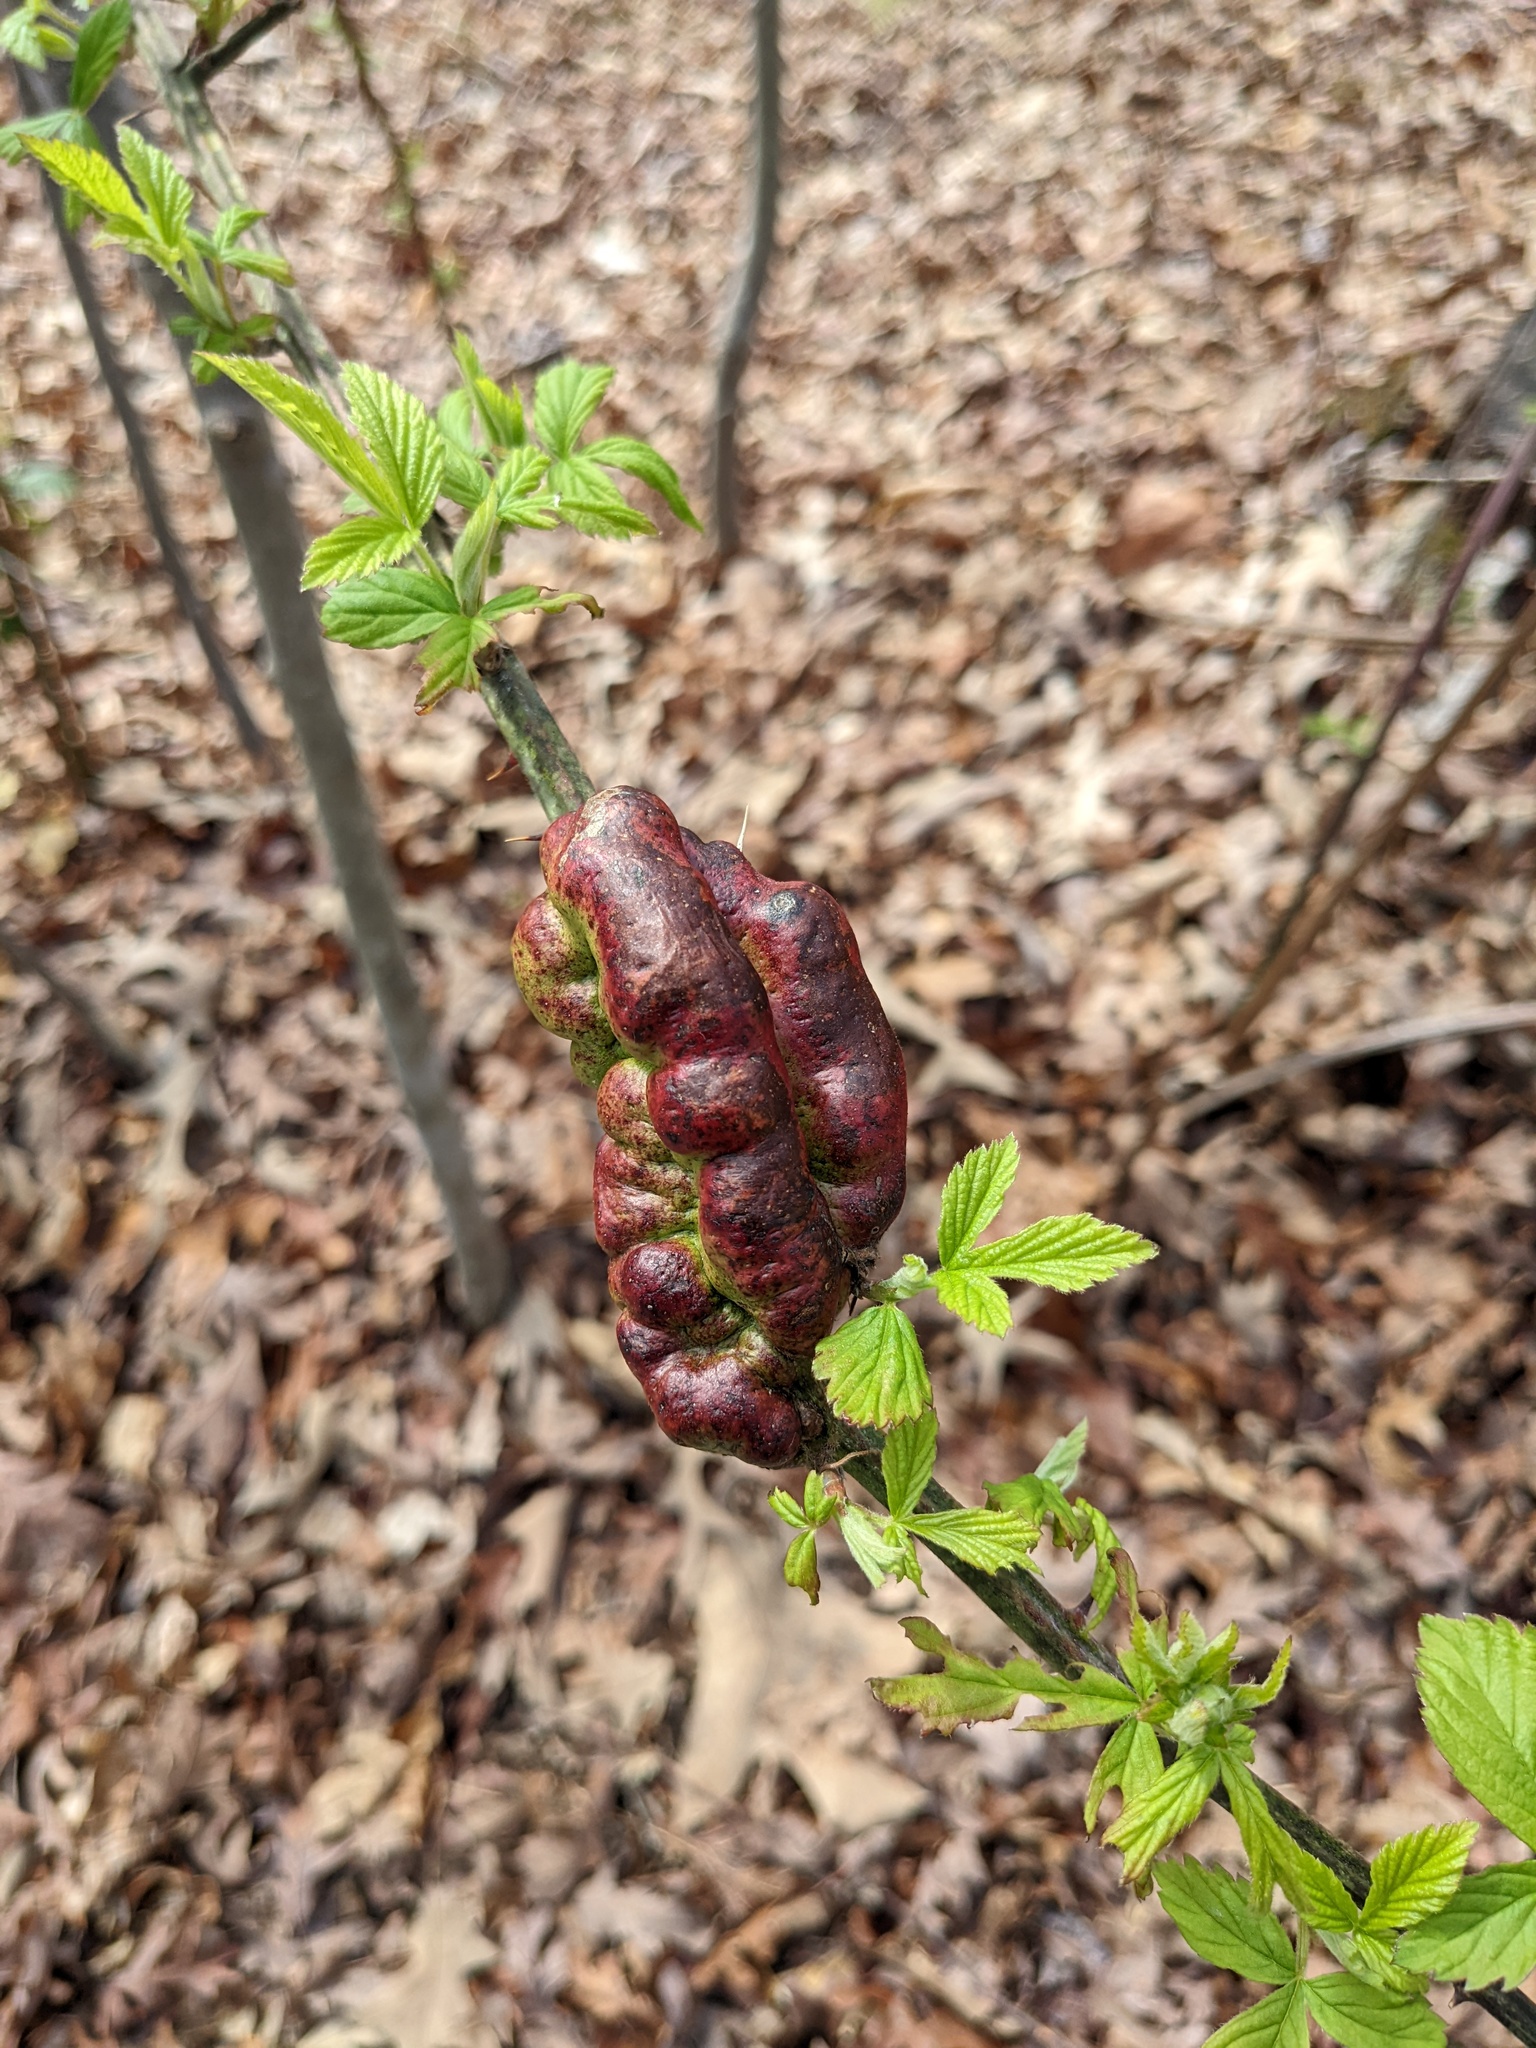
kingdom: Animalia
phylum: Arthropoda
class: Insecta
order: Hymenoptera
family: Cynipidae
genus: Diastrophus
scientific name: Diastrophus
